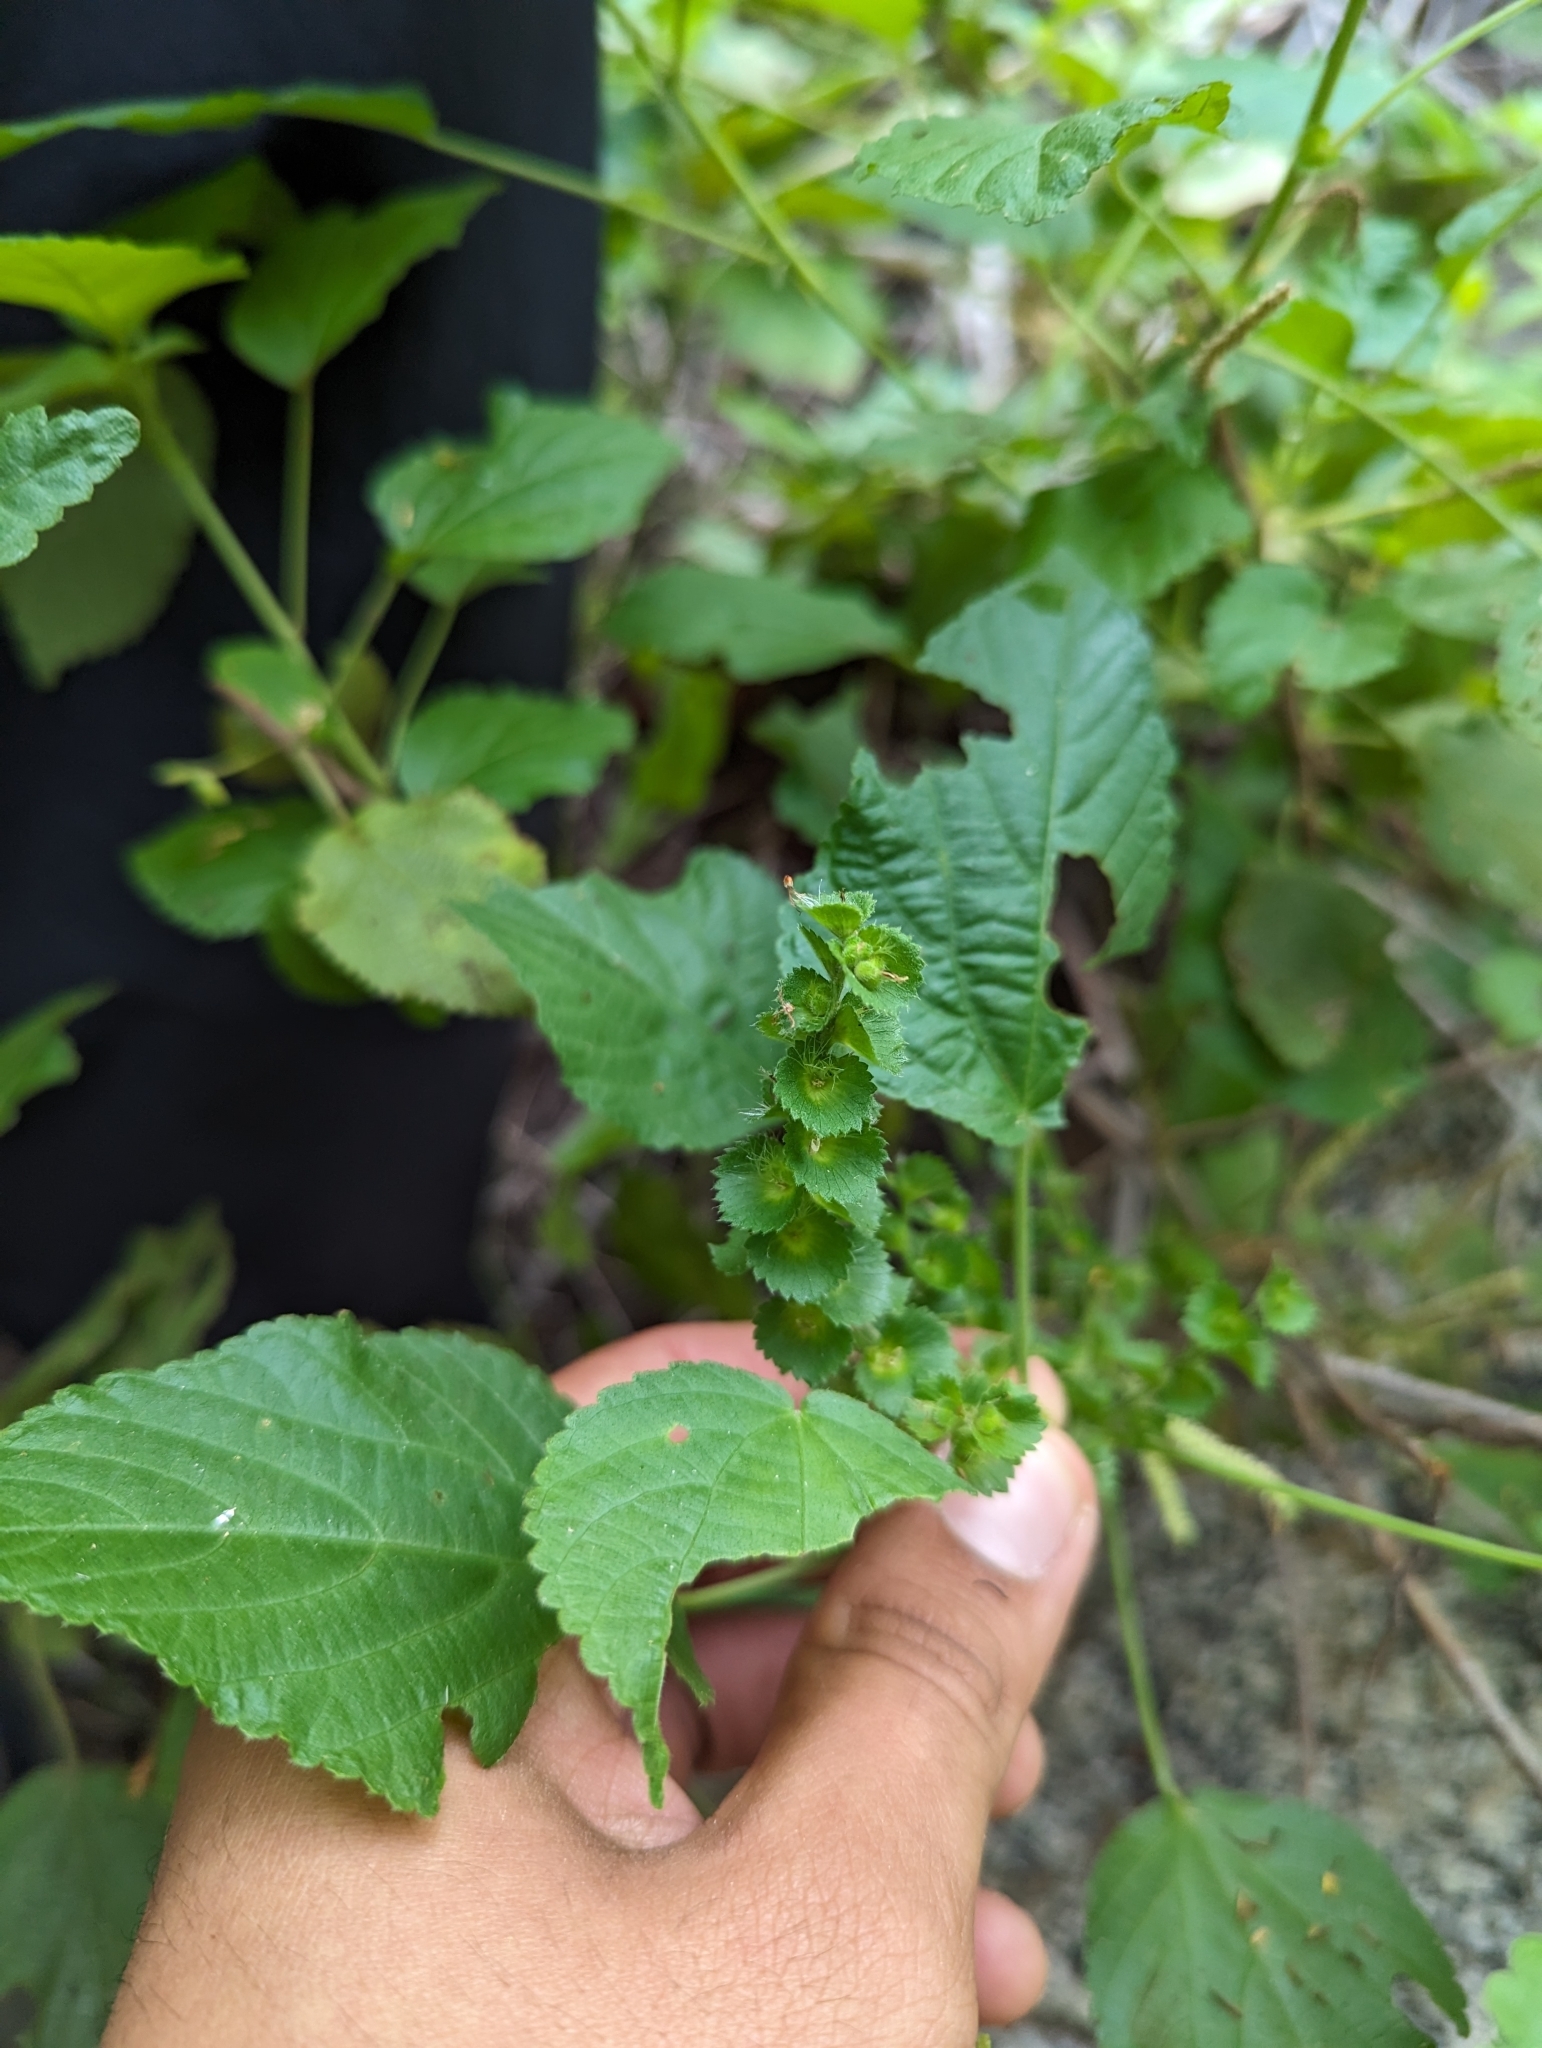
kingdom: Plantae
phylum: Tracheophyta
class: Magnoliopsida
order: Malpighiales
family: Euphorbiaceae
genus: Acalypha
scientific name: Acalypha comonduana
